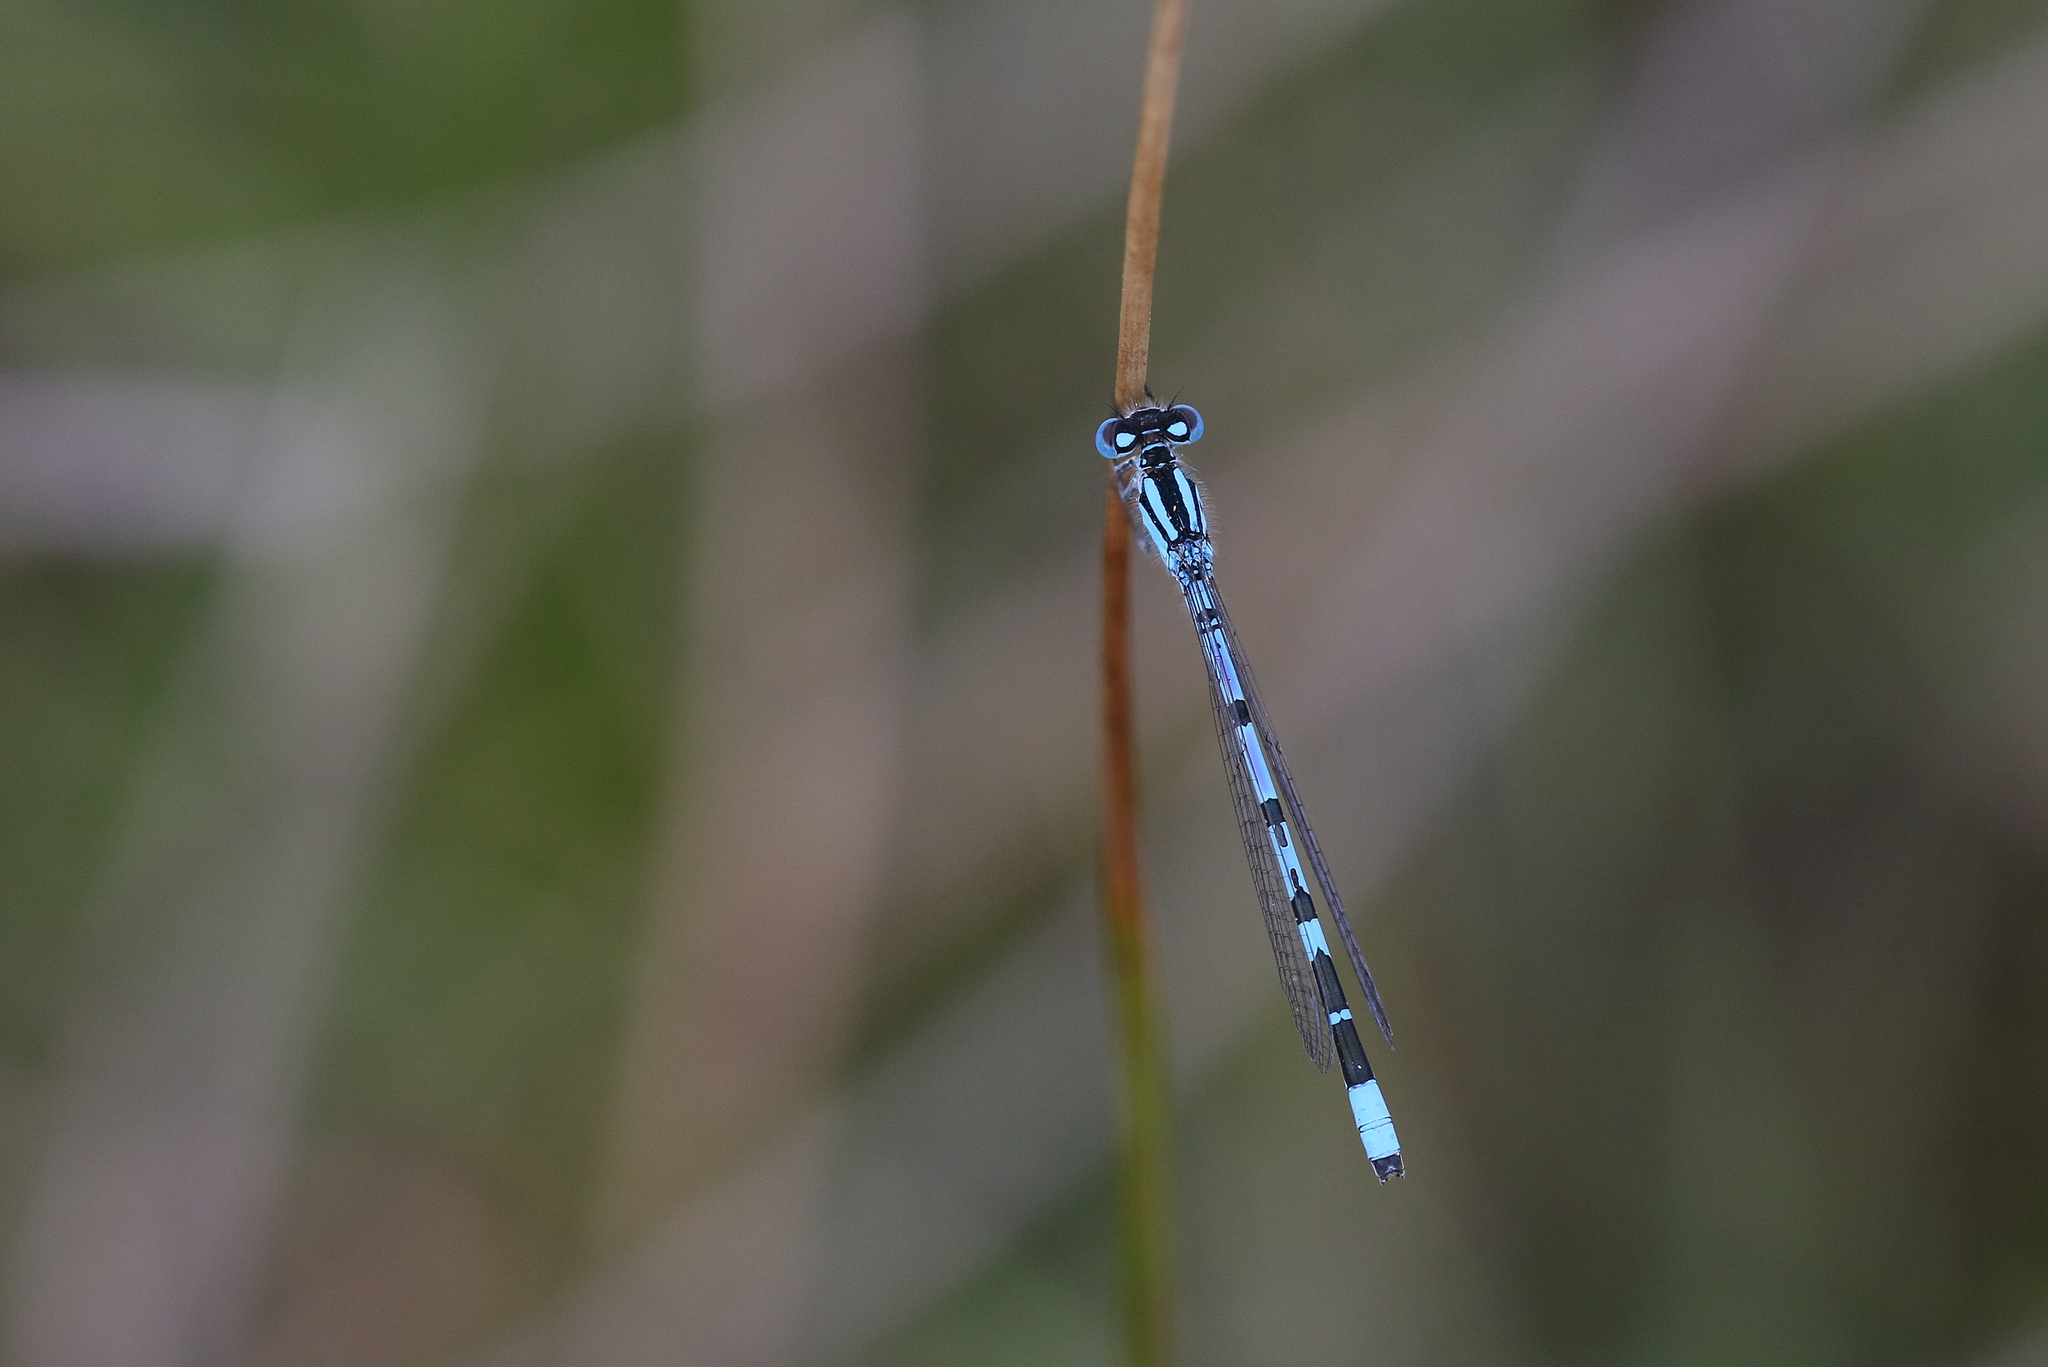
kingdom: Animalia
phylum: Arthropoda
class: Insecta
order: Odonata
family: Coenagrionidae
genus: Enallagma
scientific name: Enallagma cyathigerum
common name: Common blue damselfly
